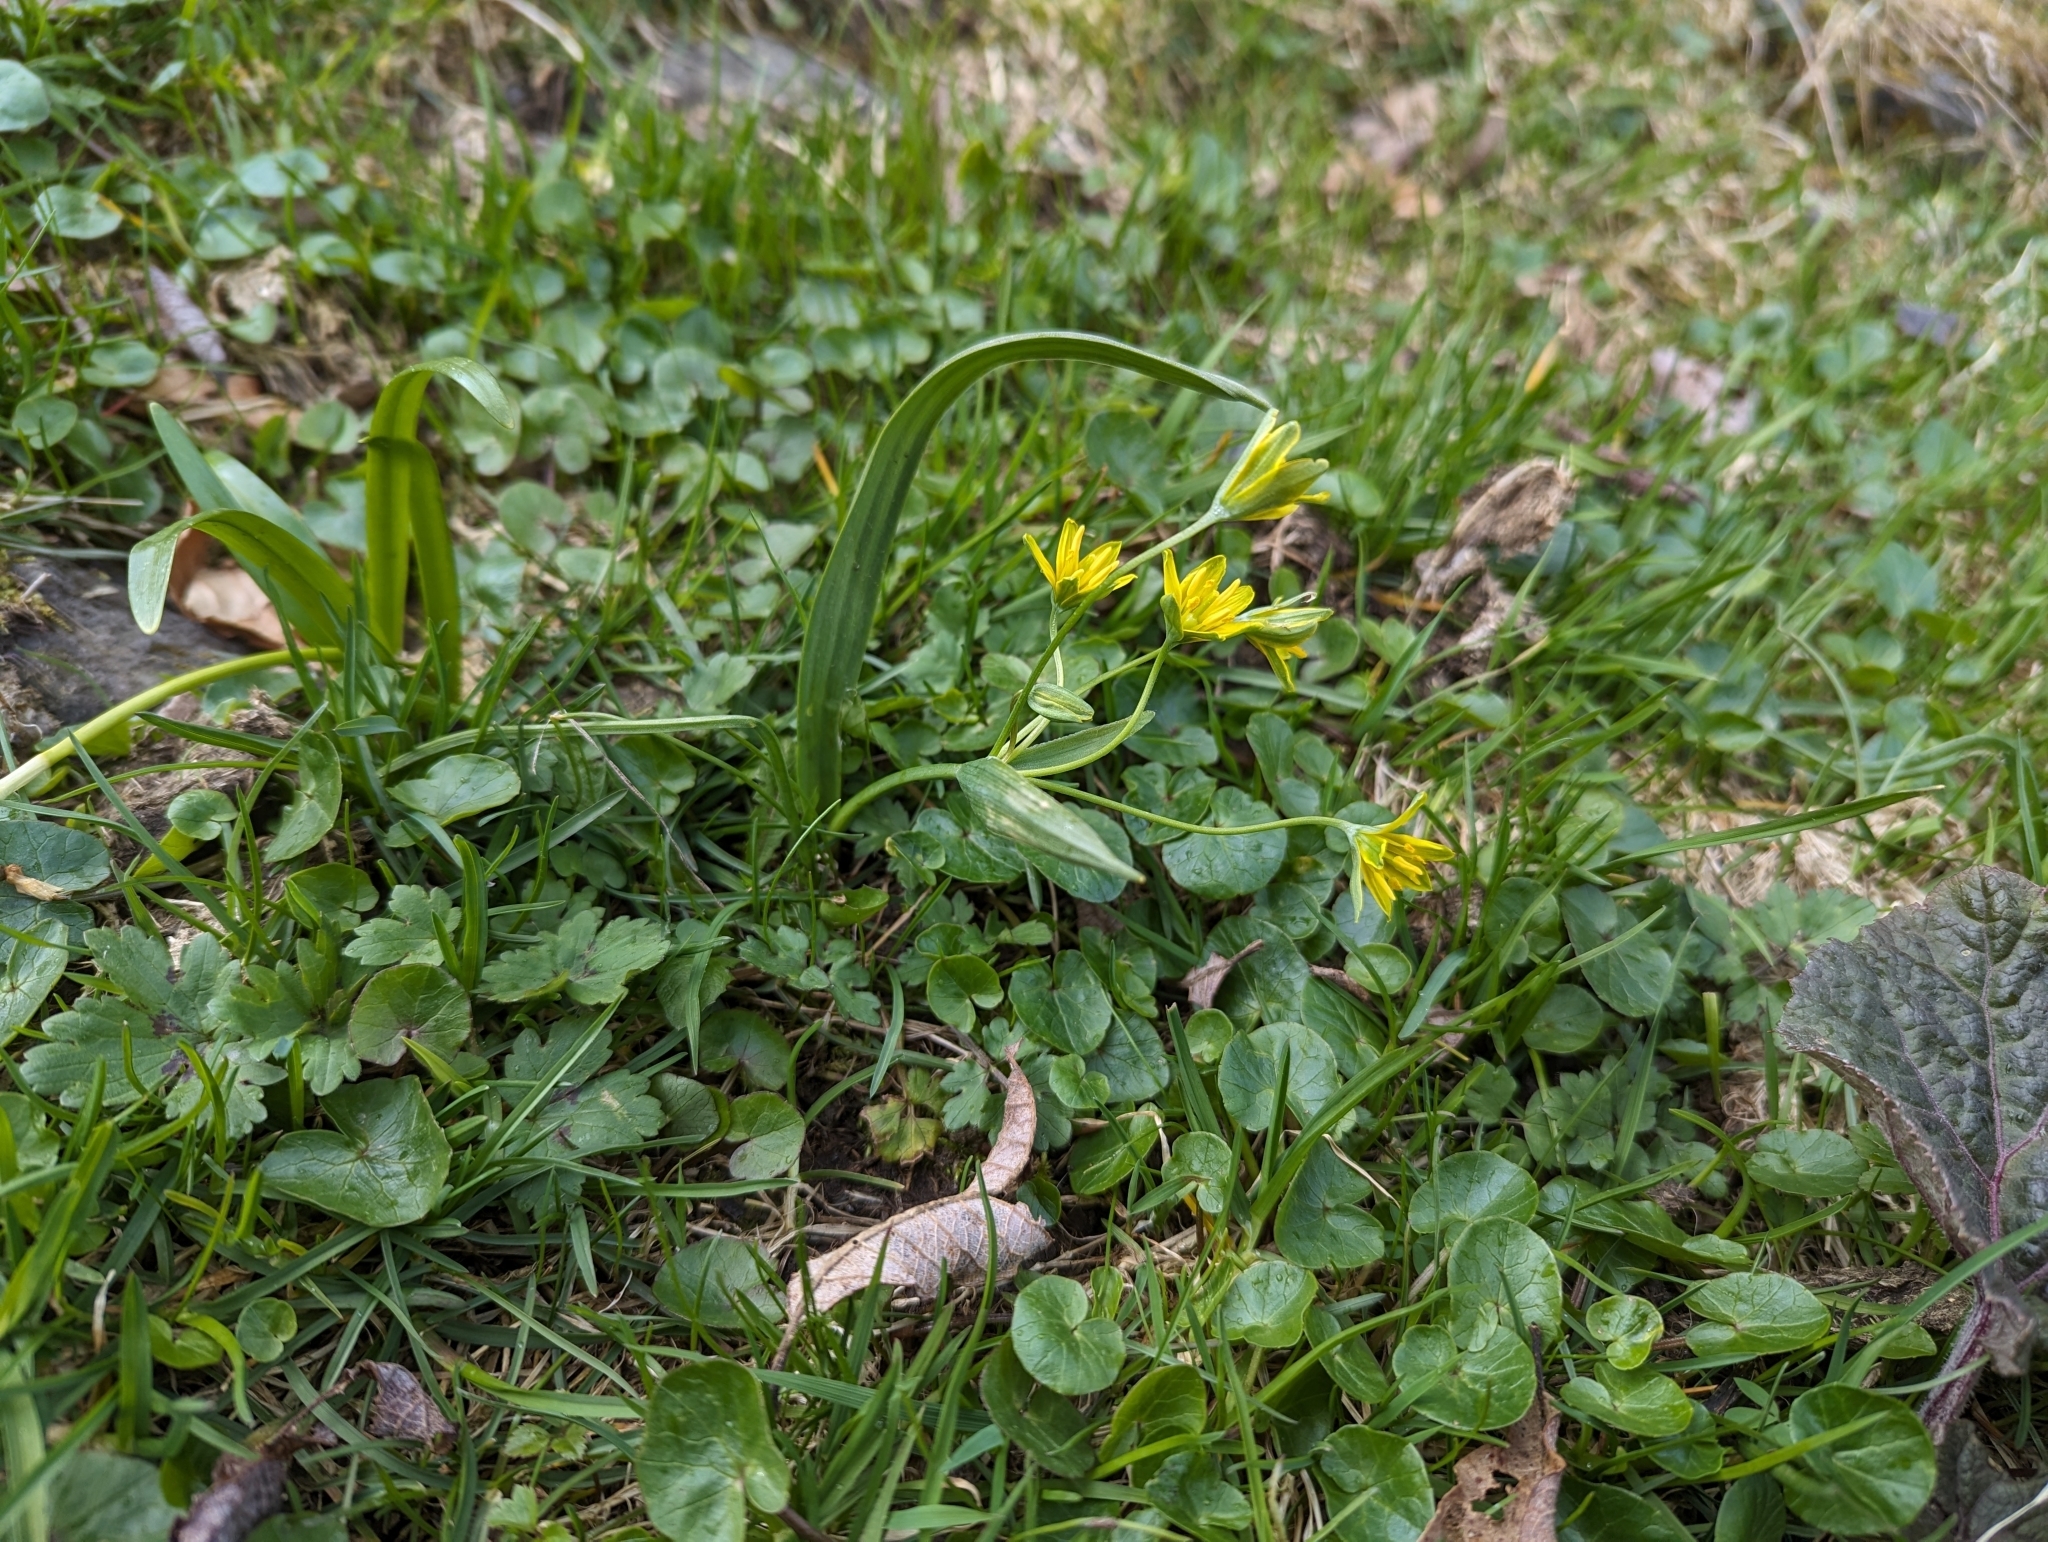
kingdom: Plantae
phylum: Tracheophyta
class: Liliopsida
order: Liliales
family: Liliaceae
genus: Gagea
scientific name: Gagea lutea
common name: Yellow star-of-bethlehem
